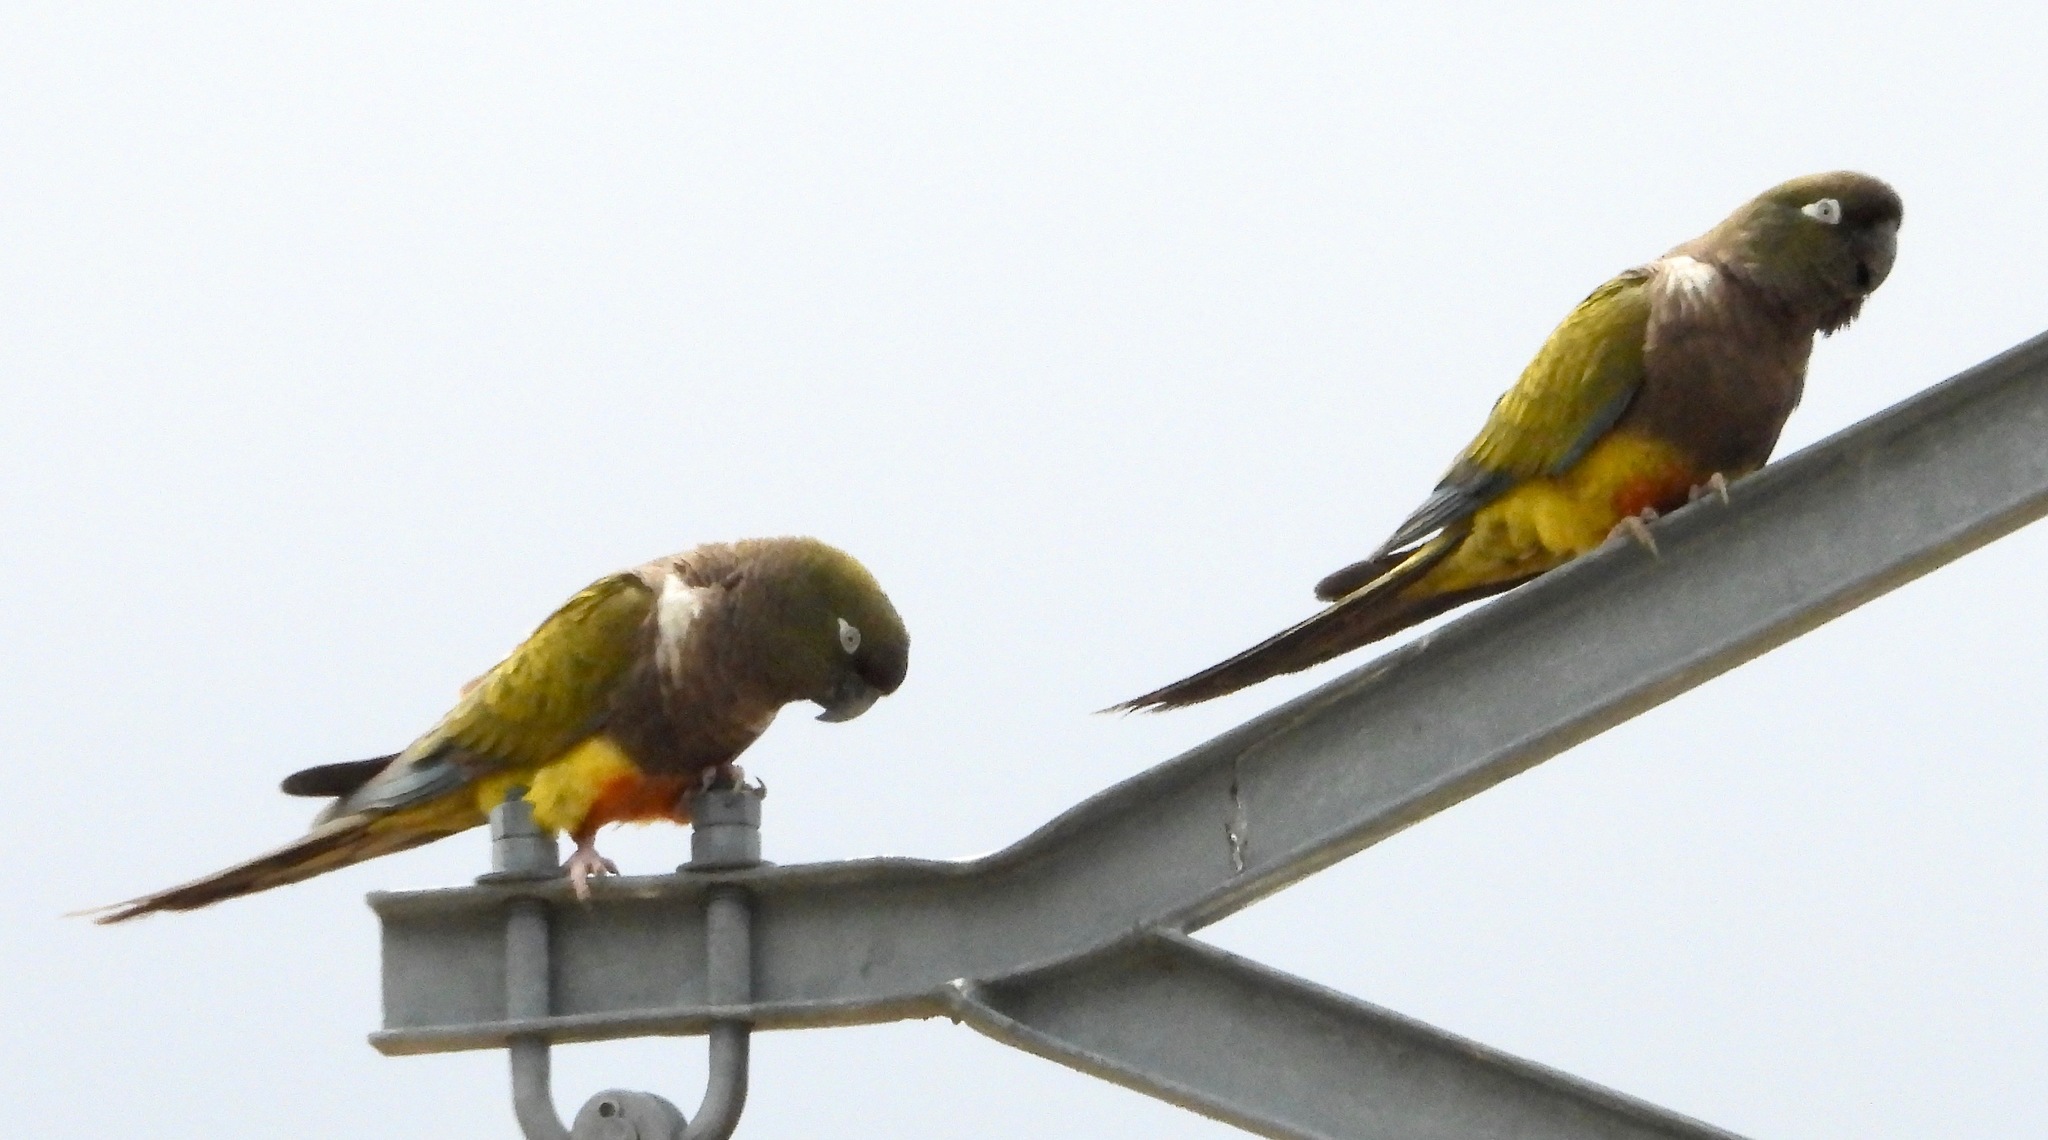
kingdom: Animalia
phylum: Chordata
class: Aves
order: Psittaciformes
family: Psittacidae
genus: Cyanoliseus
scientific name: Cyanoliseus patagonus
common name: Burrowing parrot
